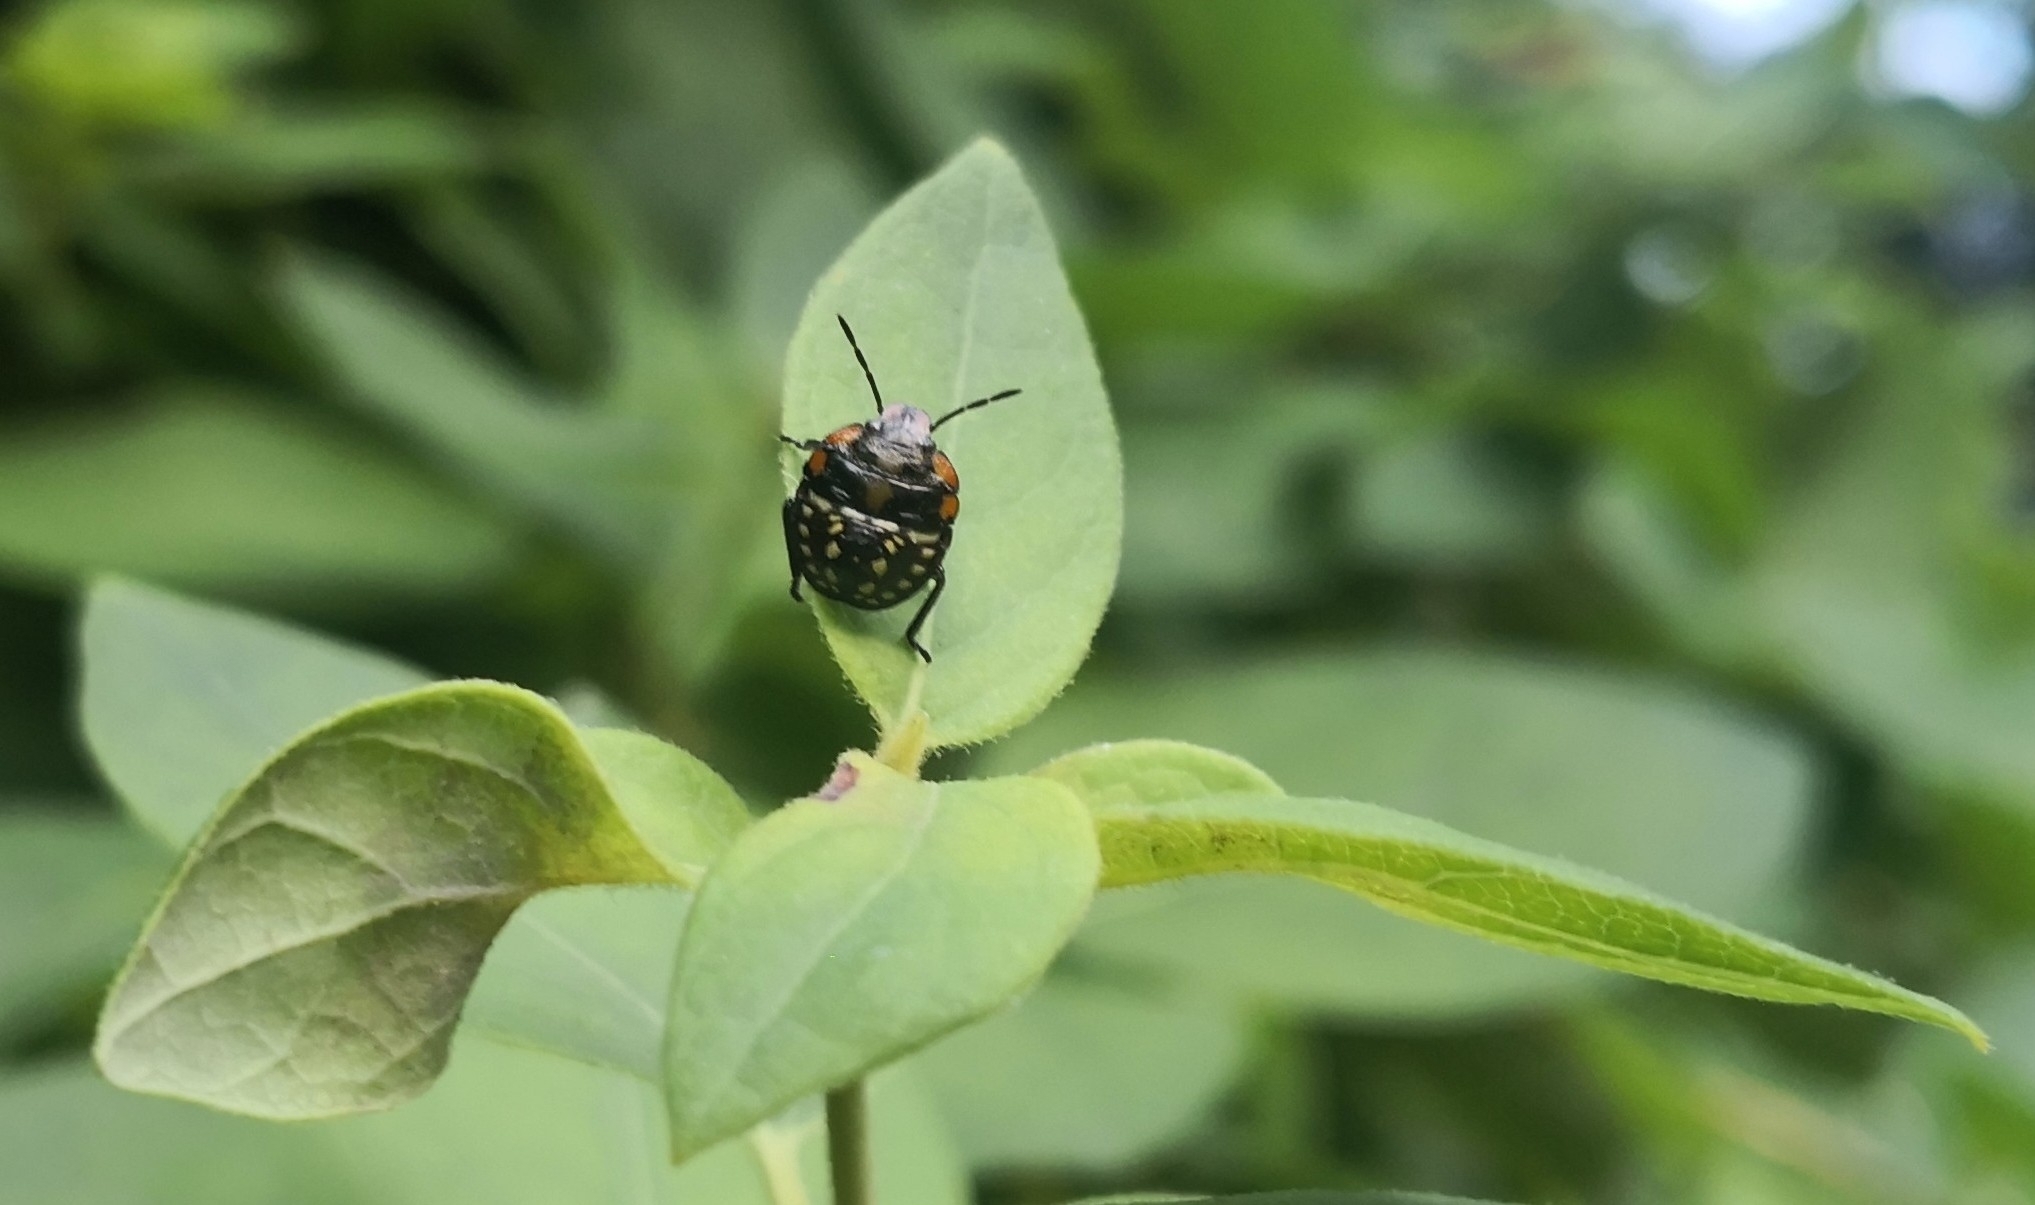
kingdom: Animalia
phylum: Arthropoda
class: Insecta
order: Hemiptera
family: Pentatomidae
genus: Nezara
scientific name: Nezara viridula
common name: Southern green stink bug
